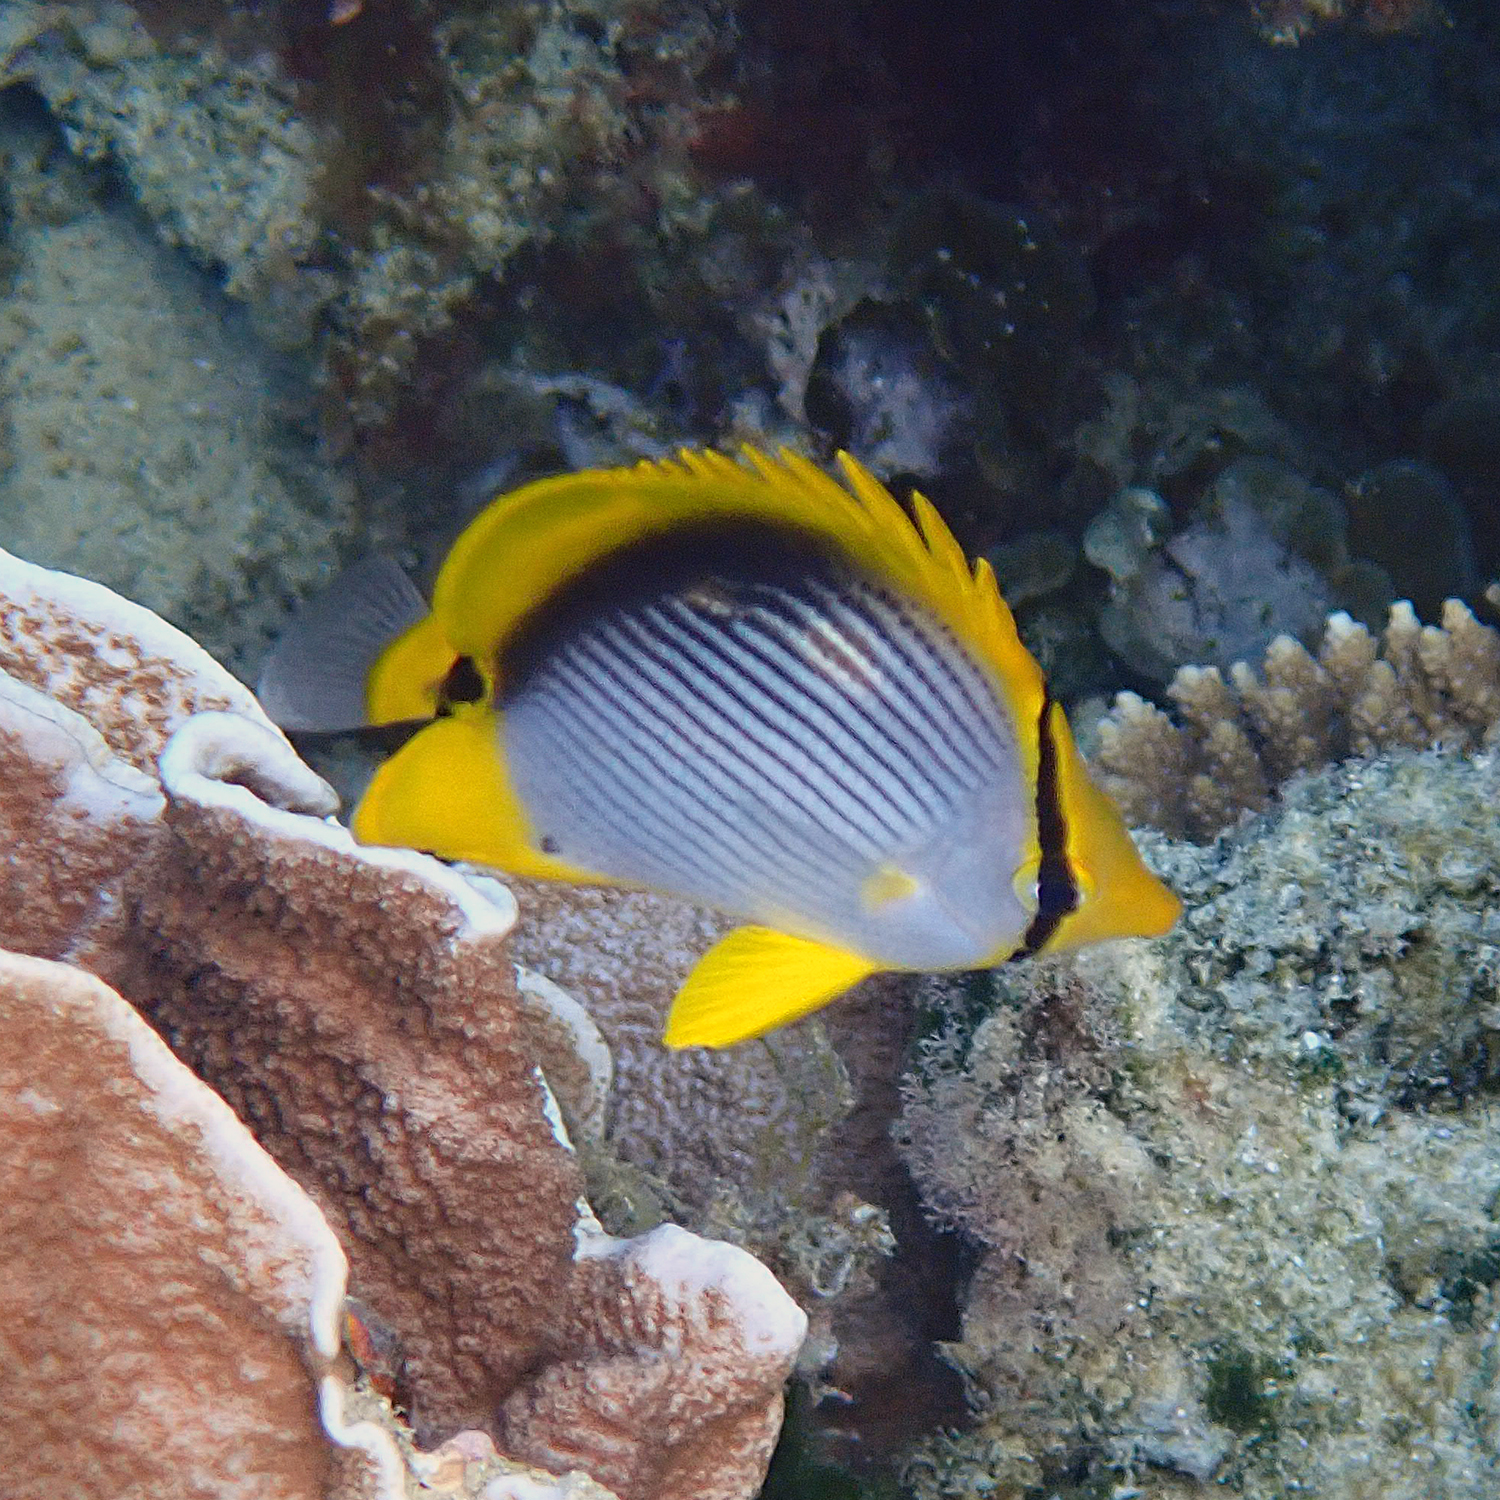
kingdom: Animalia
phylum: Chordata
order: Perciformes
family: Chaetodontidae
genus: Chaetodon
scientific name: Chaetodon melannotus
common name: Blackback butterflyfish
